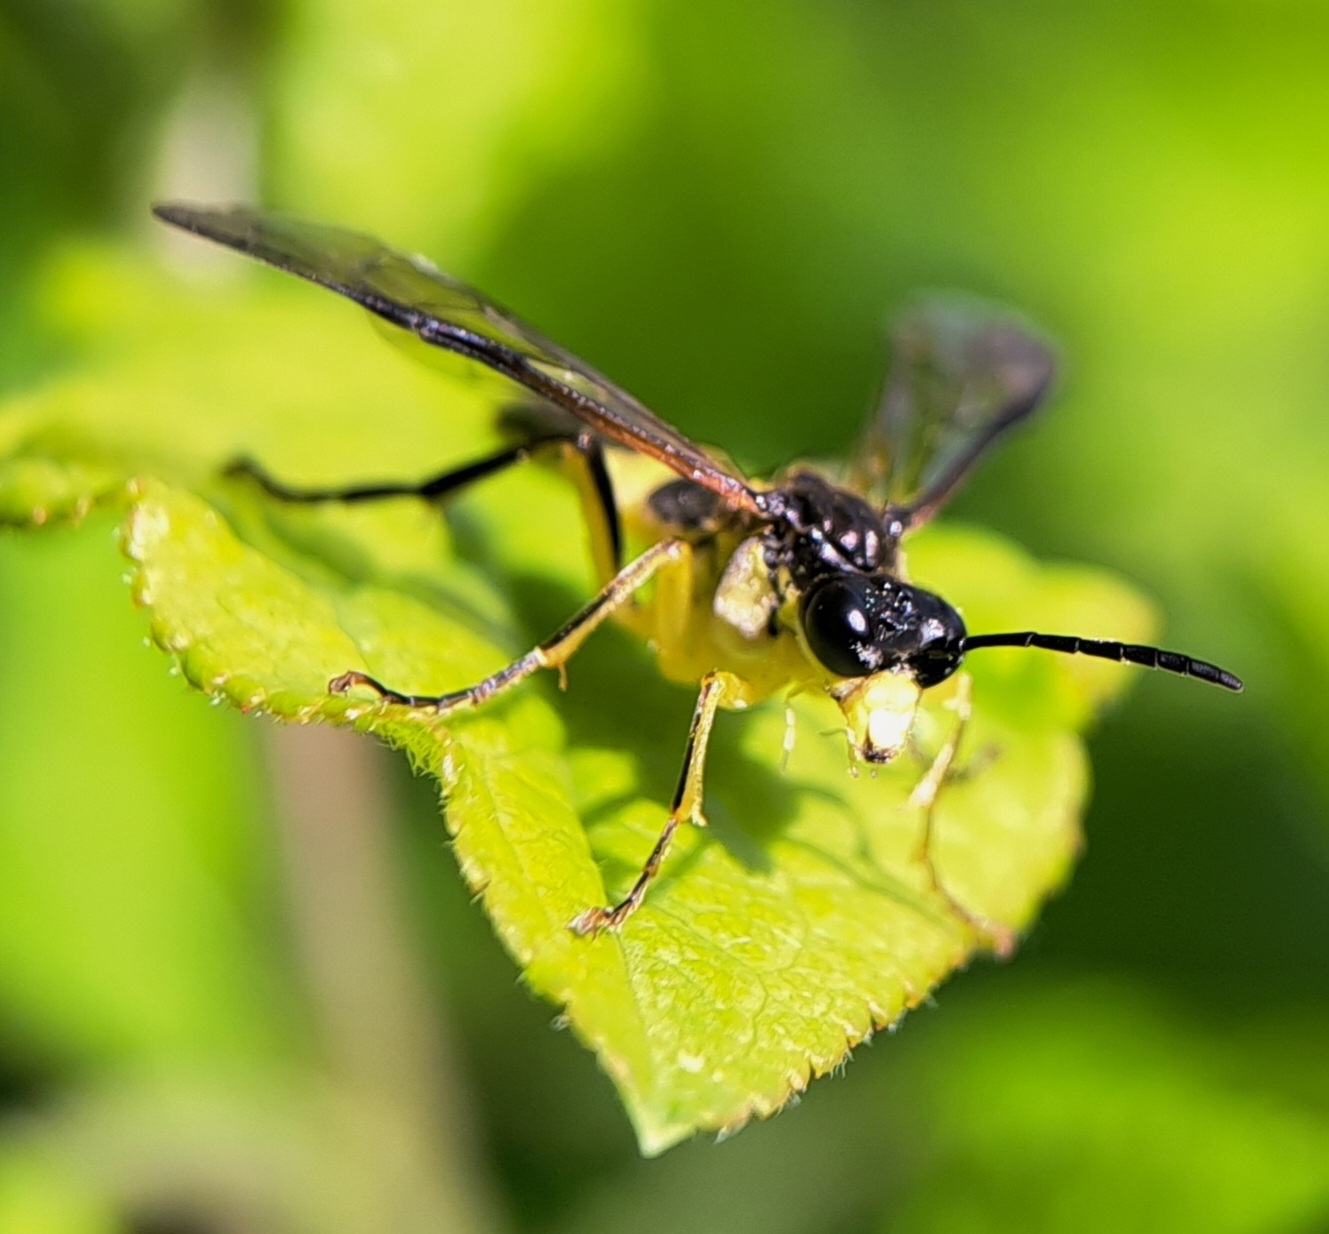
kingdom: Animalia
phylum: Arthropoda
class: Insecta
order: Hymenoptera
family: Tenthredinidae
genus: Tenthredo
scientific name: Tenthredo temula
